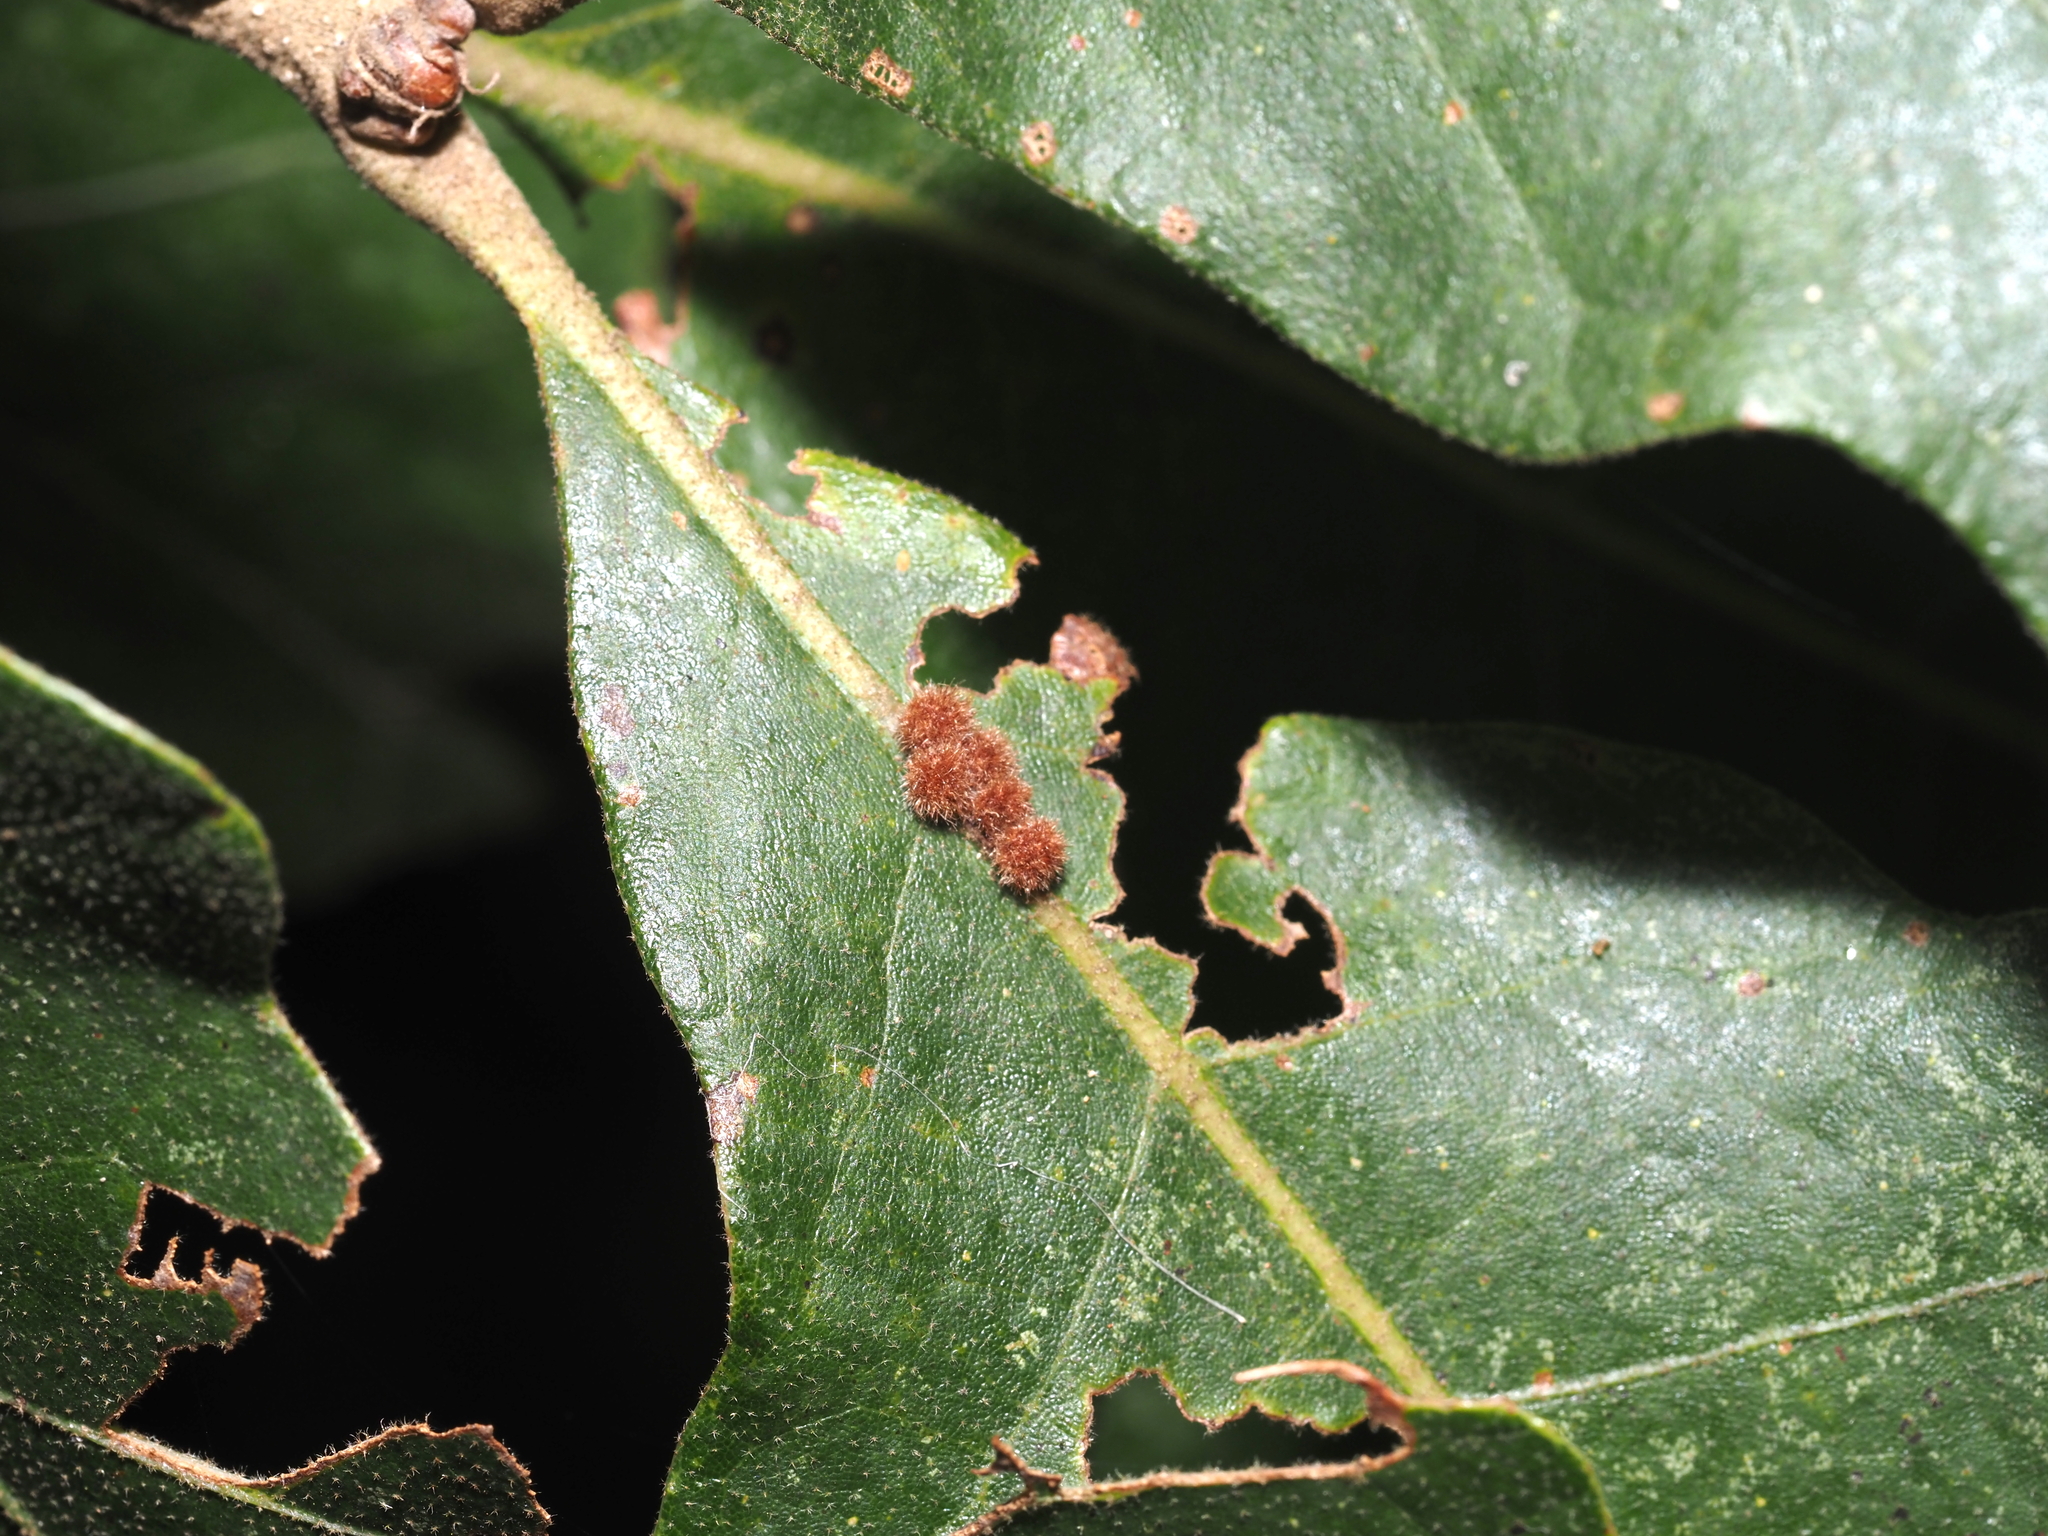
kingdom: Animalia
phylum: Arthropoda
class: Insecta
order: Hymenoptera
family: Cynipidae
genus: Biorhiza
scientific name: Biorhiza Sphaeroteras carolina
